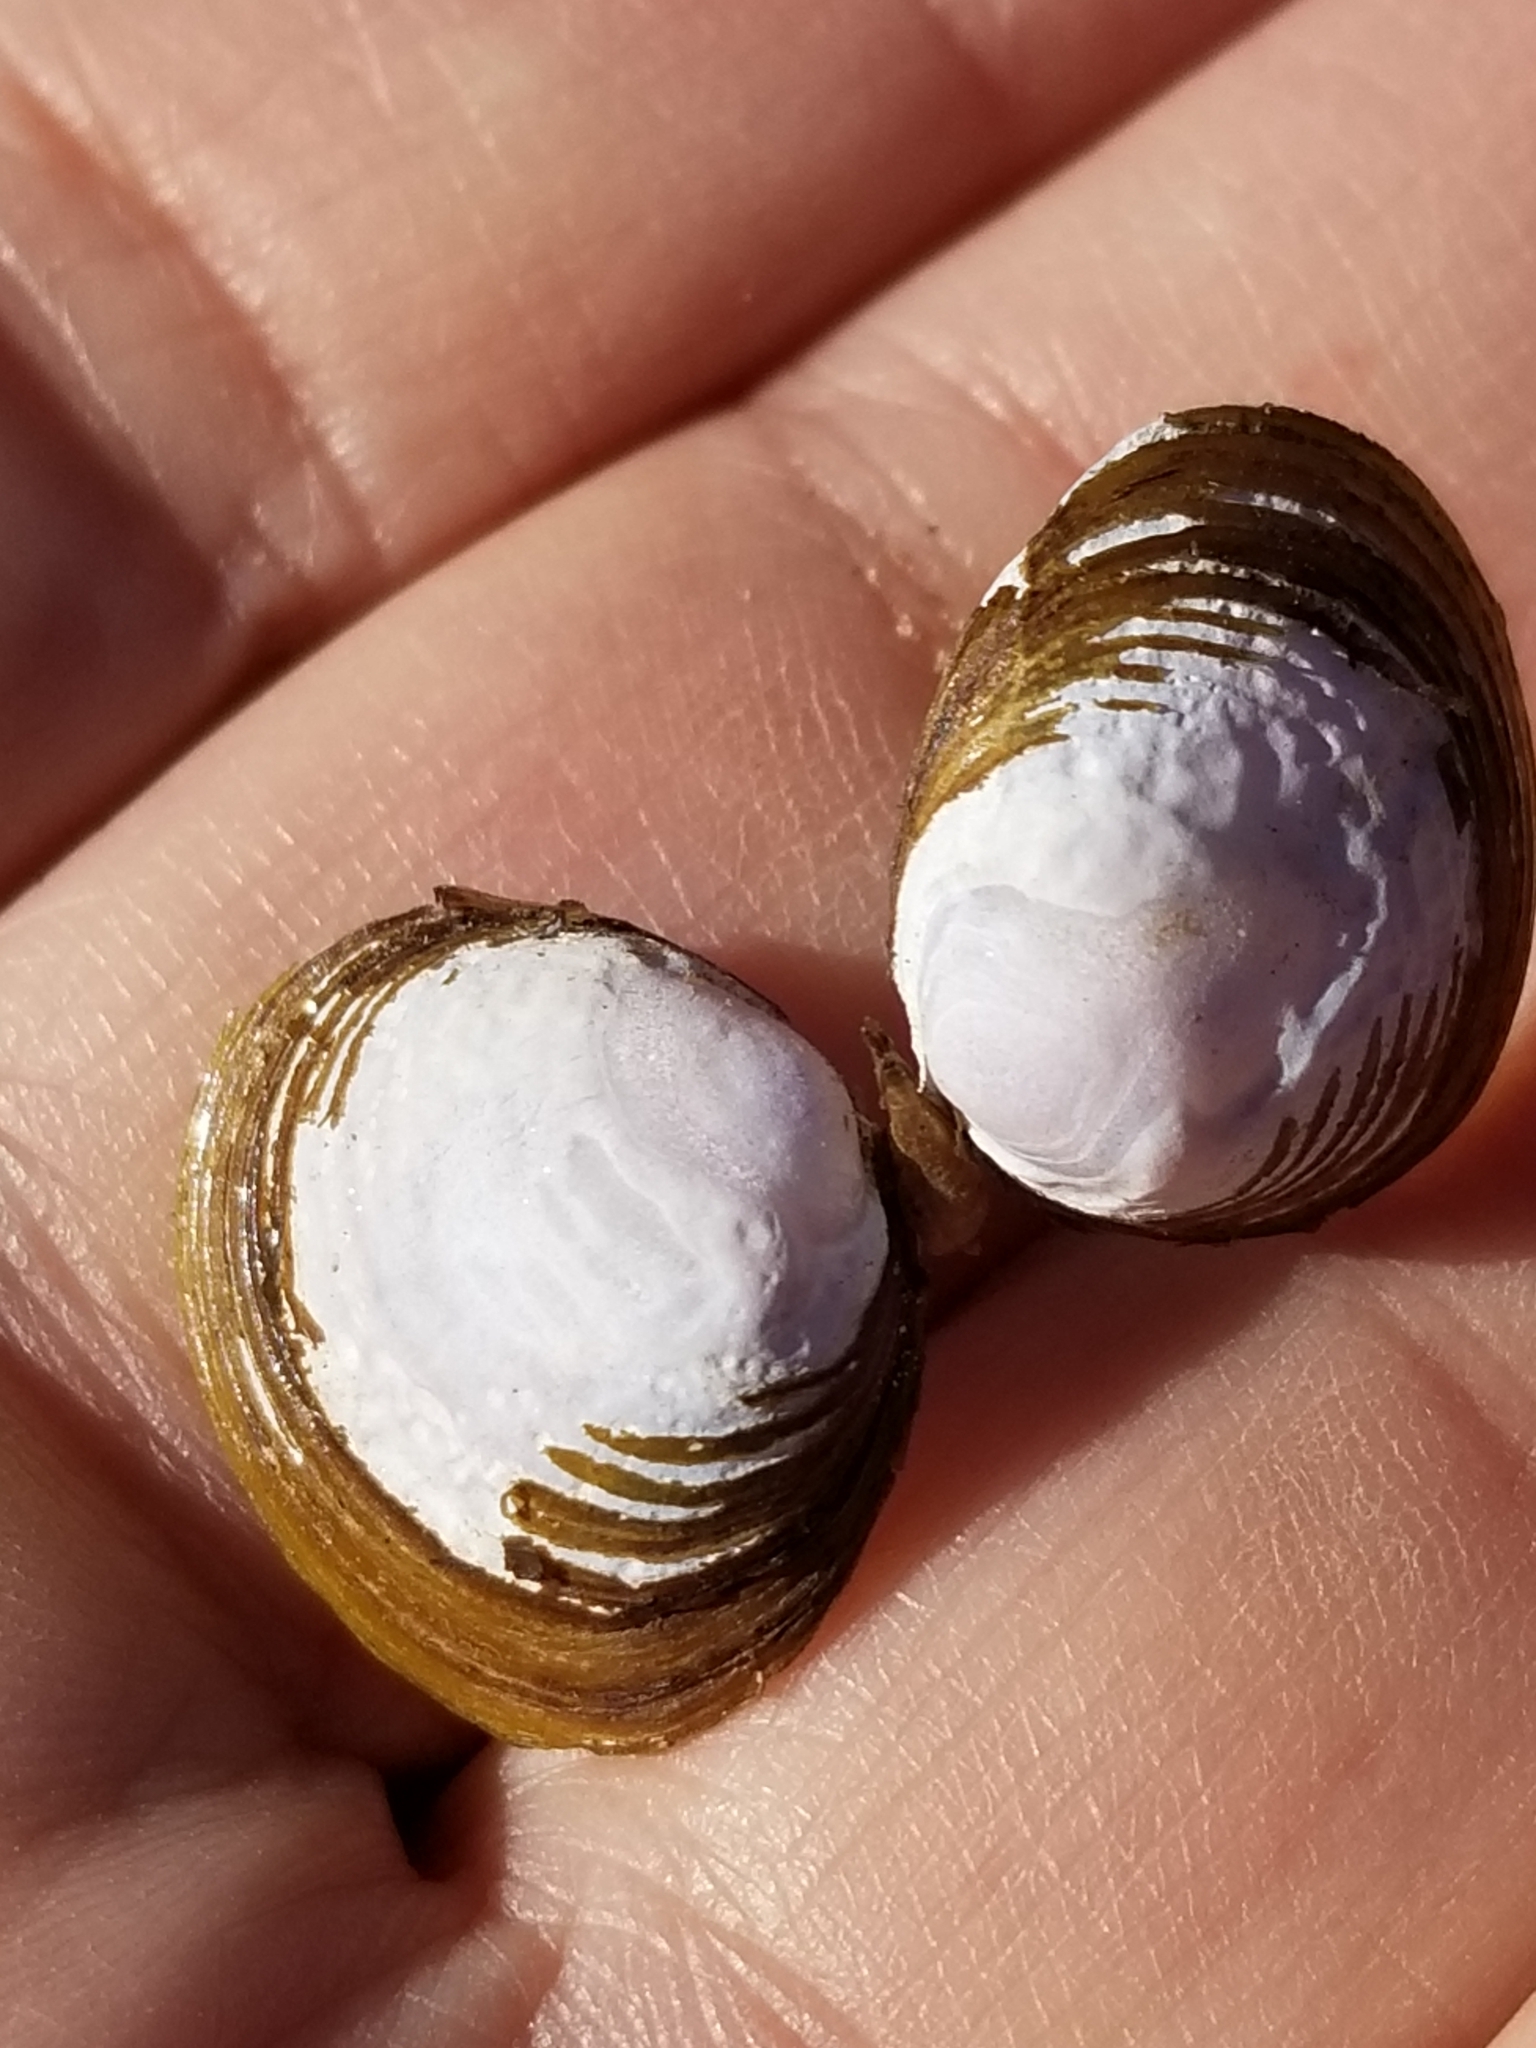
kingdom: Animalia
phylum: Mollusca
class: Bivalvia
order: Venerida
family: Cyrenidae
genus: Corbicula
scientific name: Corbicula fluminea
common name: Asian clam
